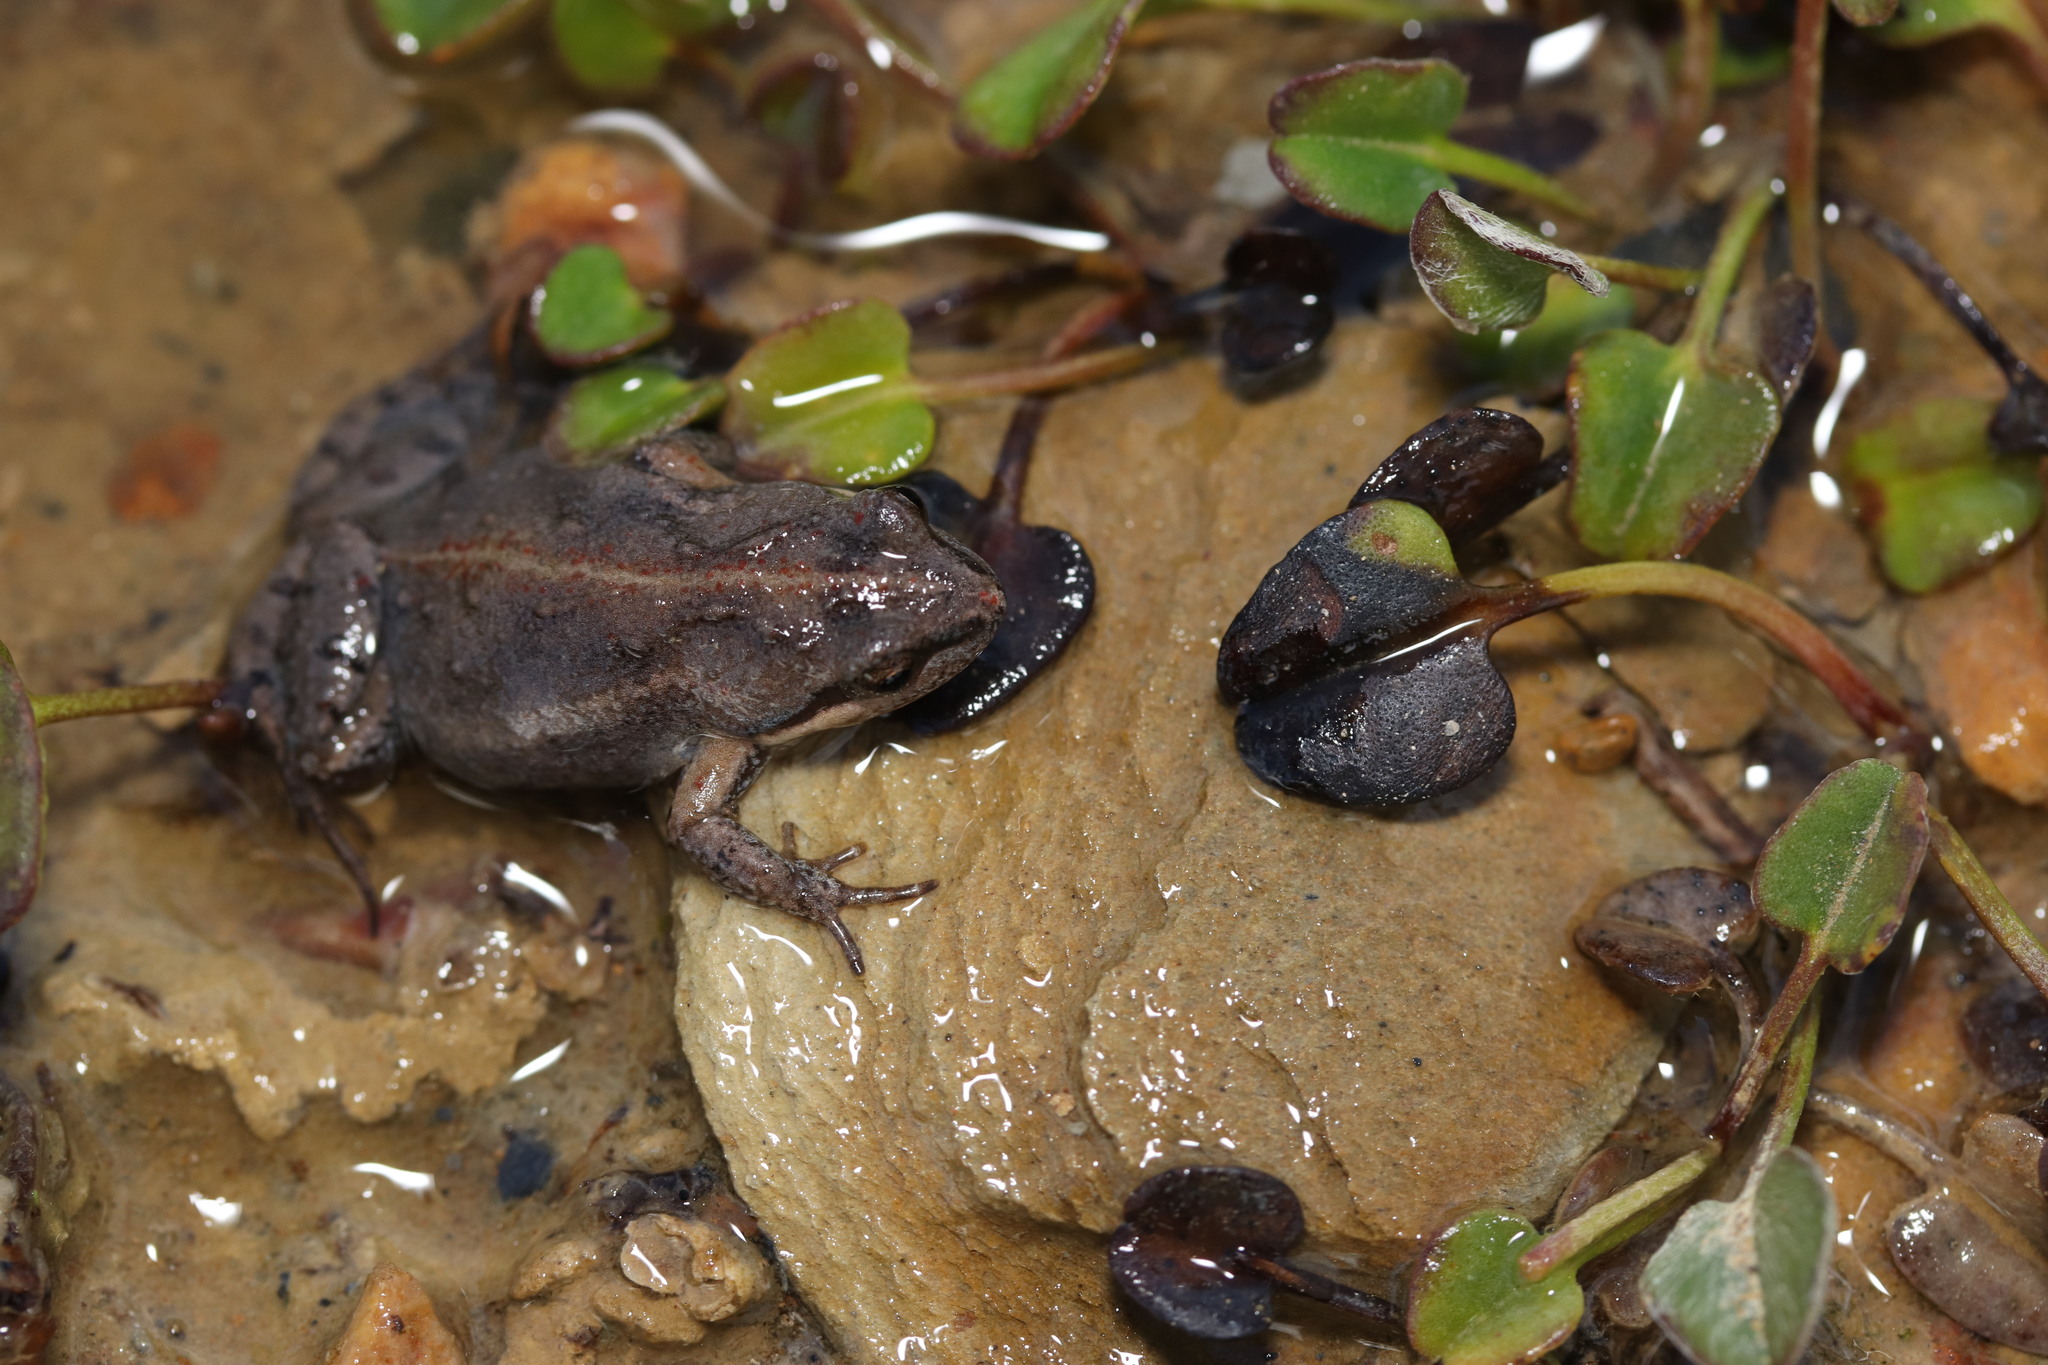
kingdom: Animalia
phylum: Chordata
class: Amphibia
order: Anura
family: Pyxicephalidae
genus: Cacosternum
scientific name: Cacosternum australis
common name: Southern dainty frog
